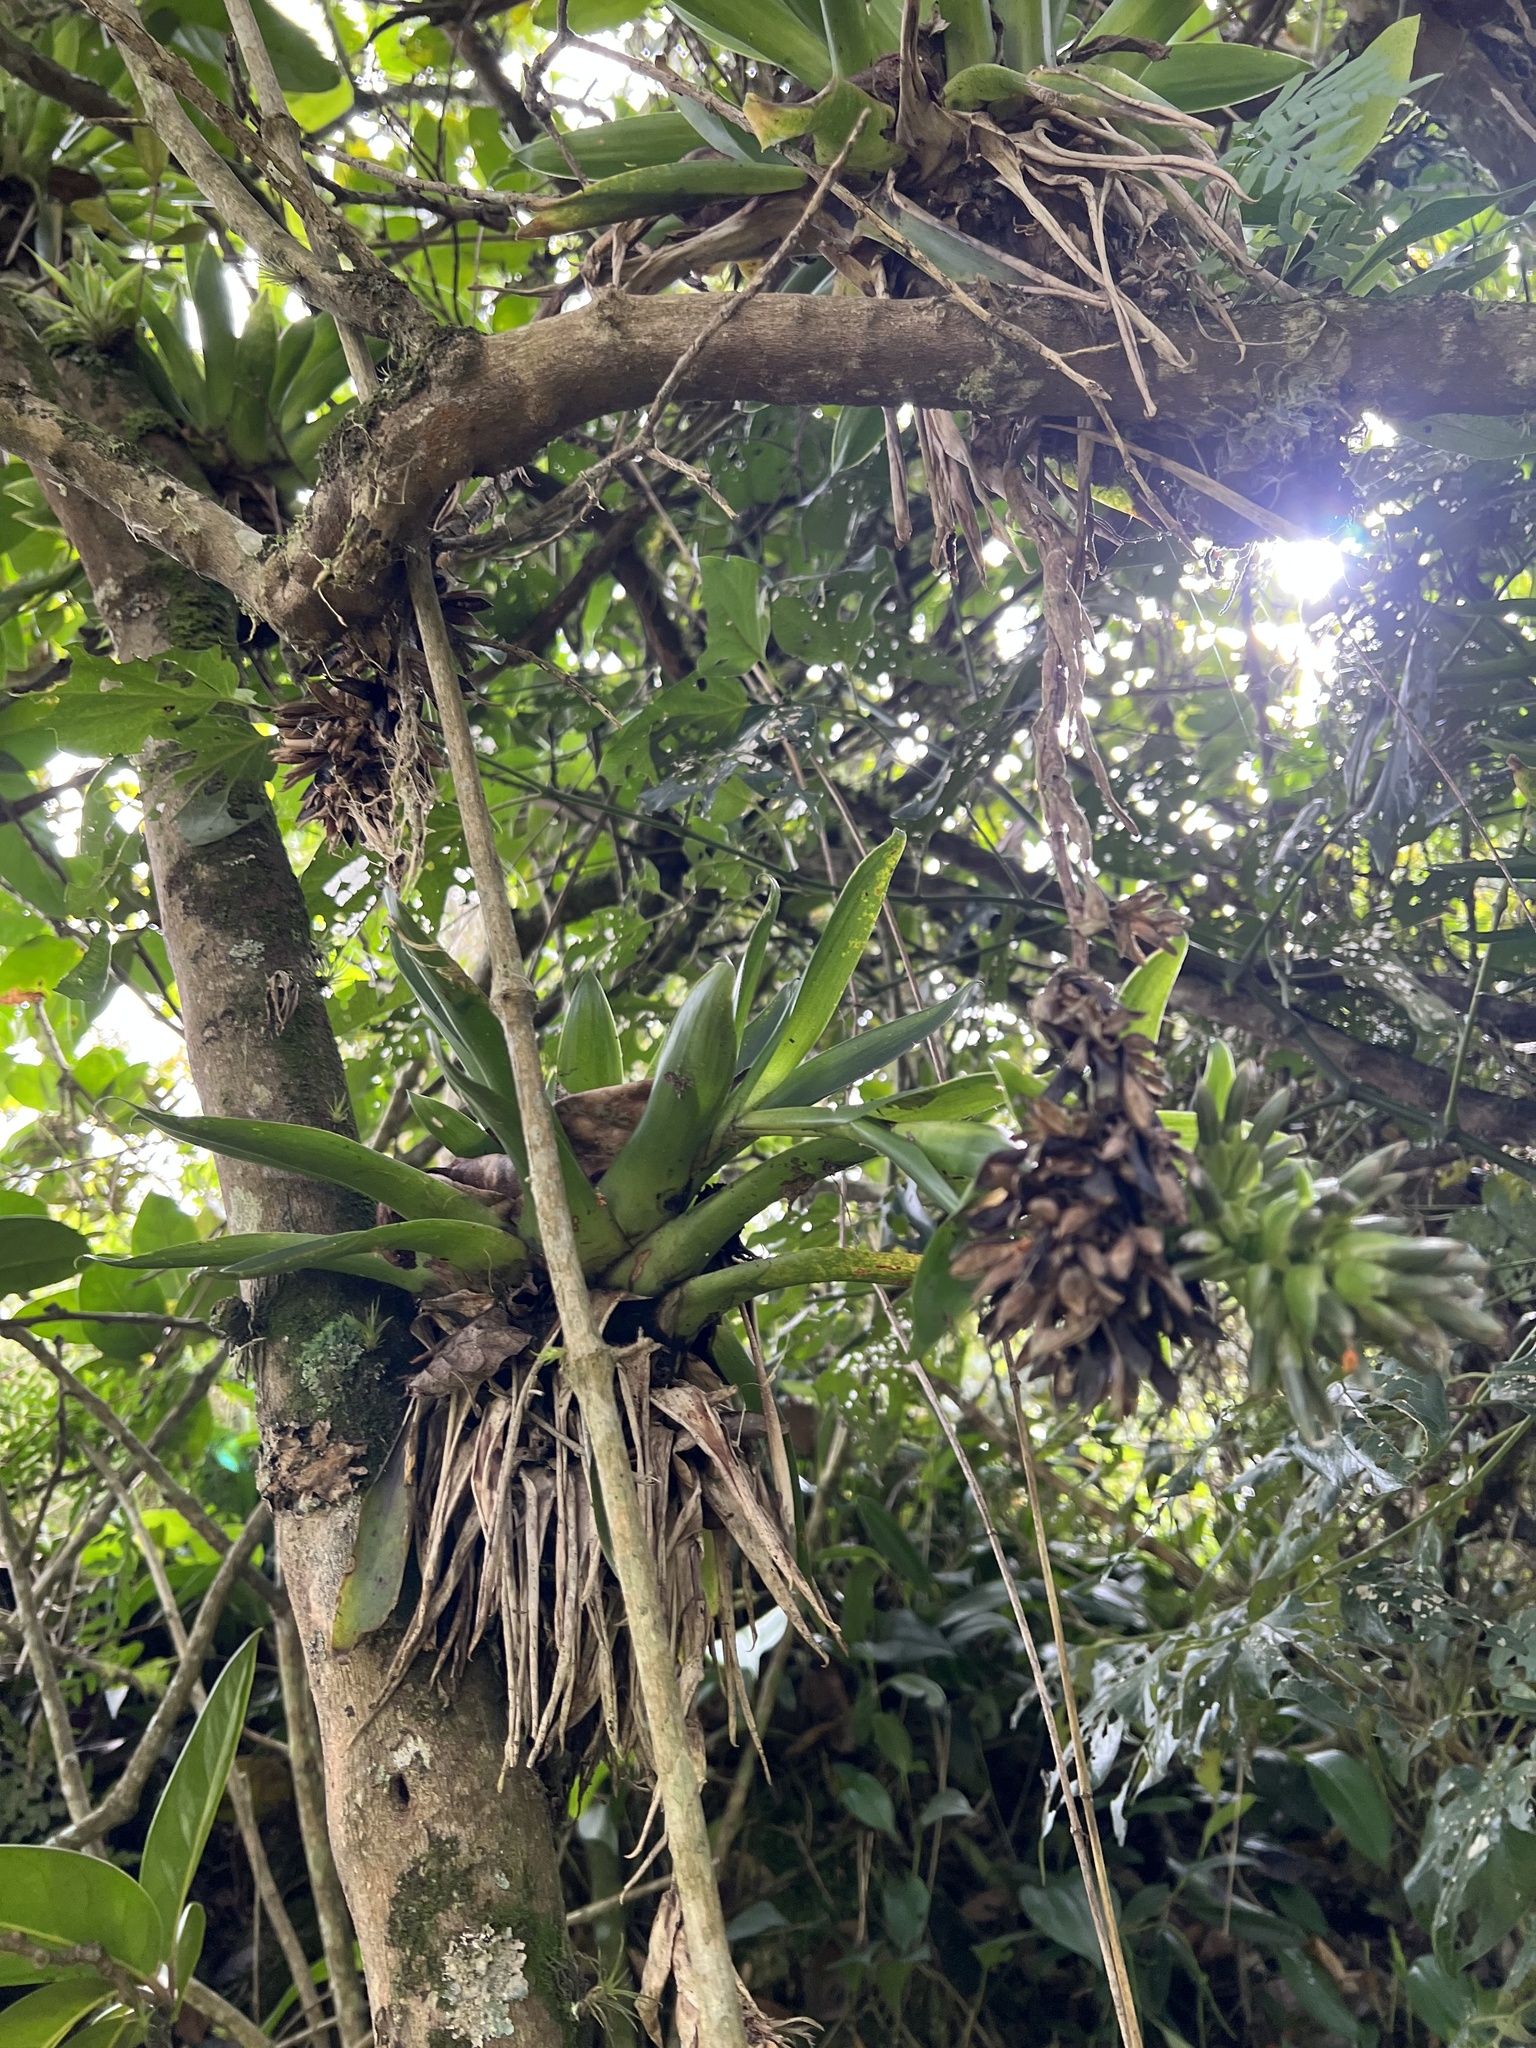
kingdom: Plantae
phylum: Tracheophyta
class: Liliopsida
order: Poales
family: Bromeliaceae
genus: Tillandsia
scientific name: Tillandsia biflora
